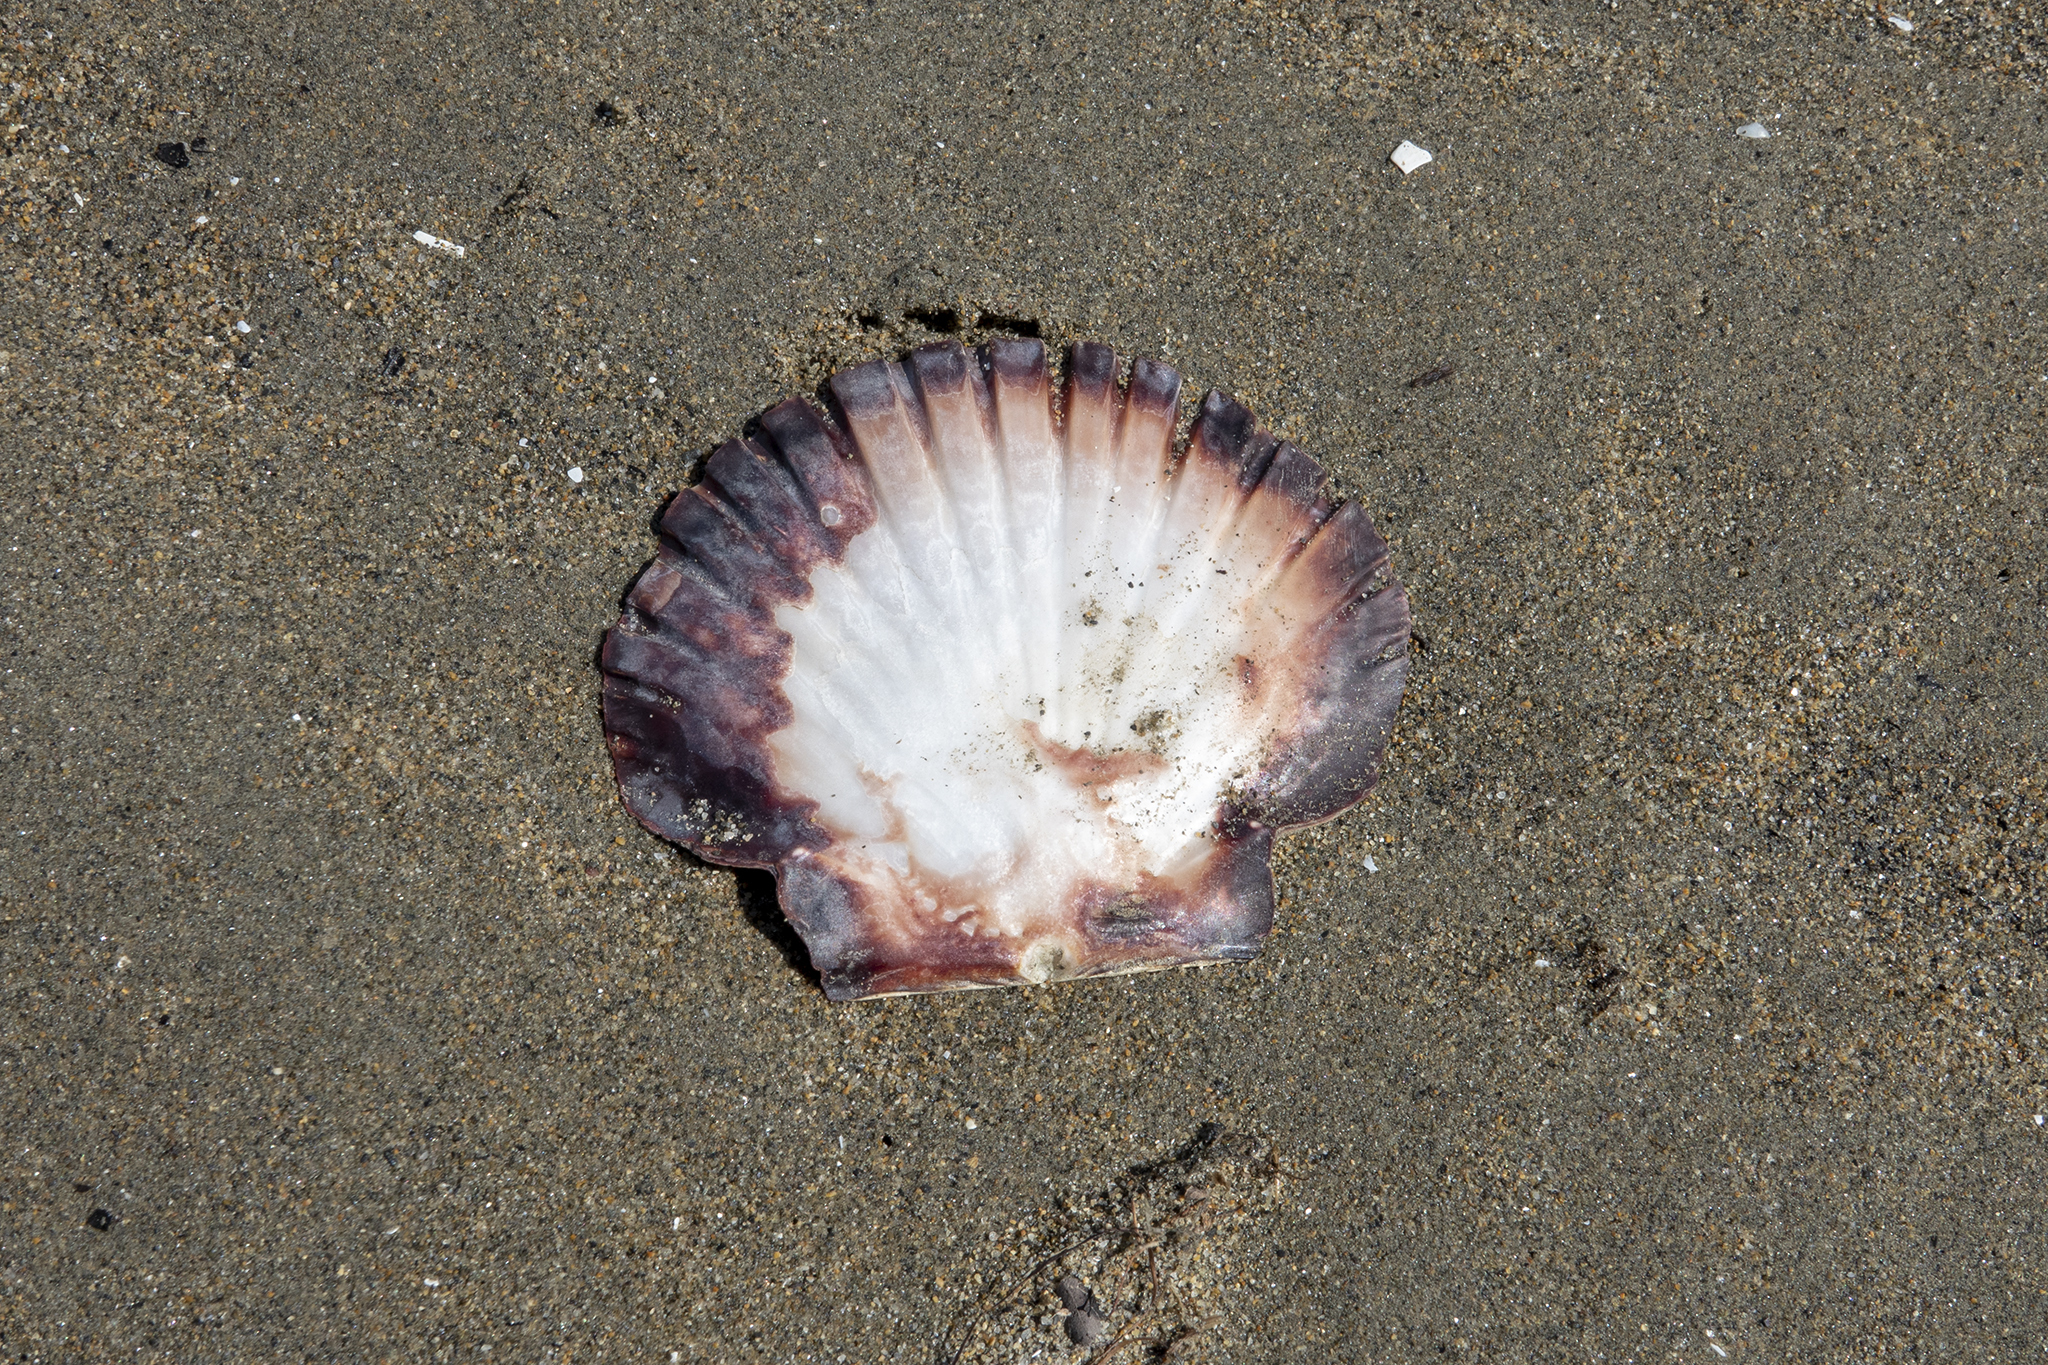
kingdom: Animalia
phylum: Mollusca
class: Bivalvia
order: Pectinida
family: Pectinidae
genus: Pecten
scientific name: Pecten novaezelandiae
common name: New zealand scallop
